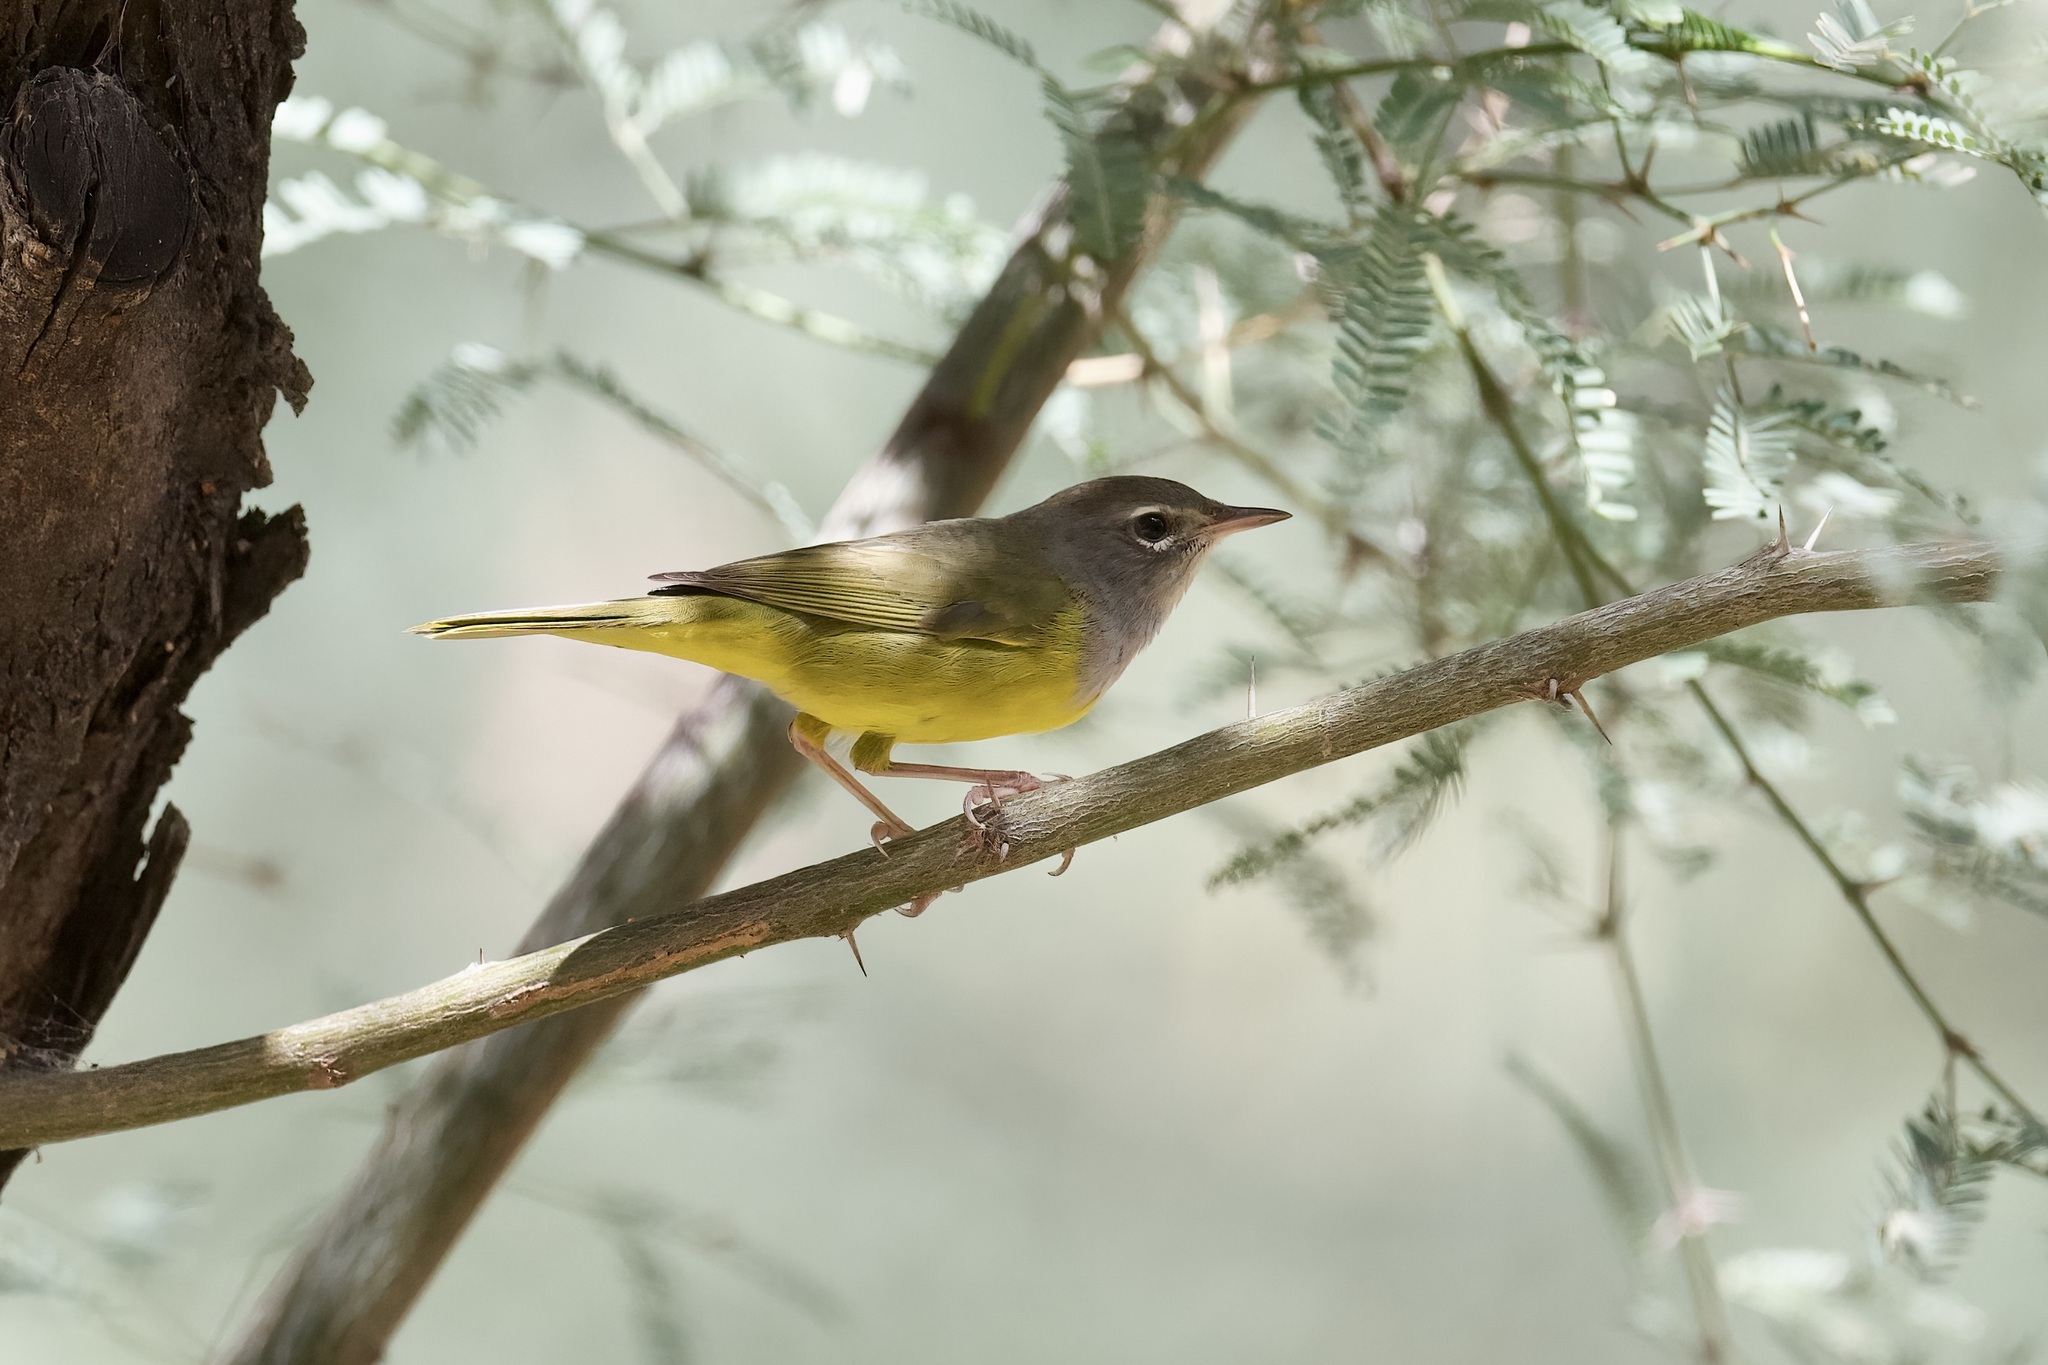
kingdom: Animalia
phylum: Chordata
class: Aves
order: Passeriformes
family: Parulidae
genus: Geothlypis
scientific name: Geothlypis tolmiei
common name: Macgillivray's warbler
